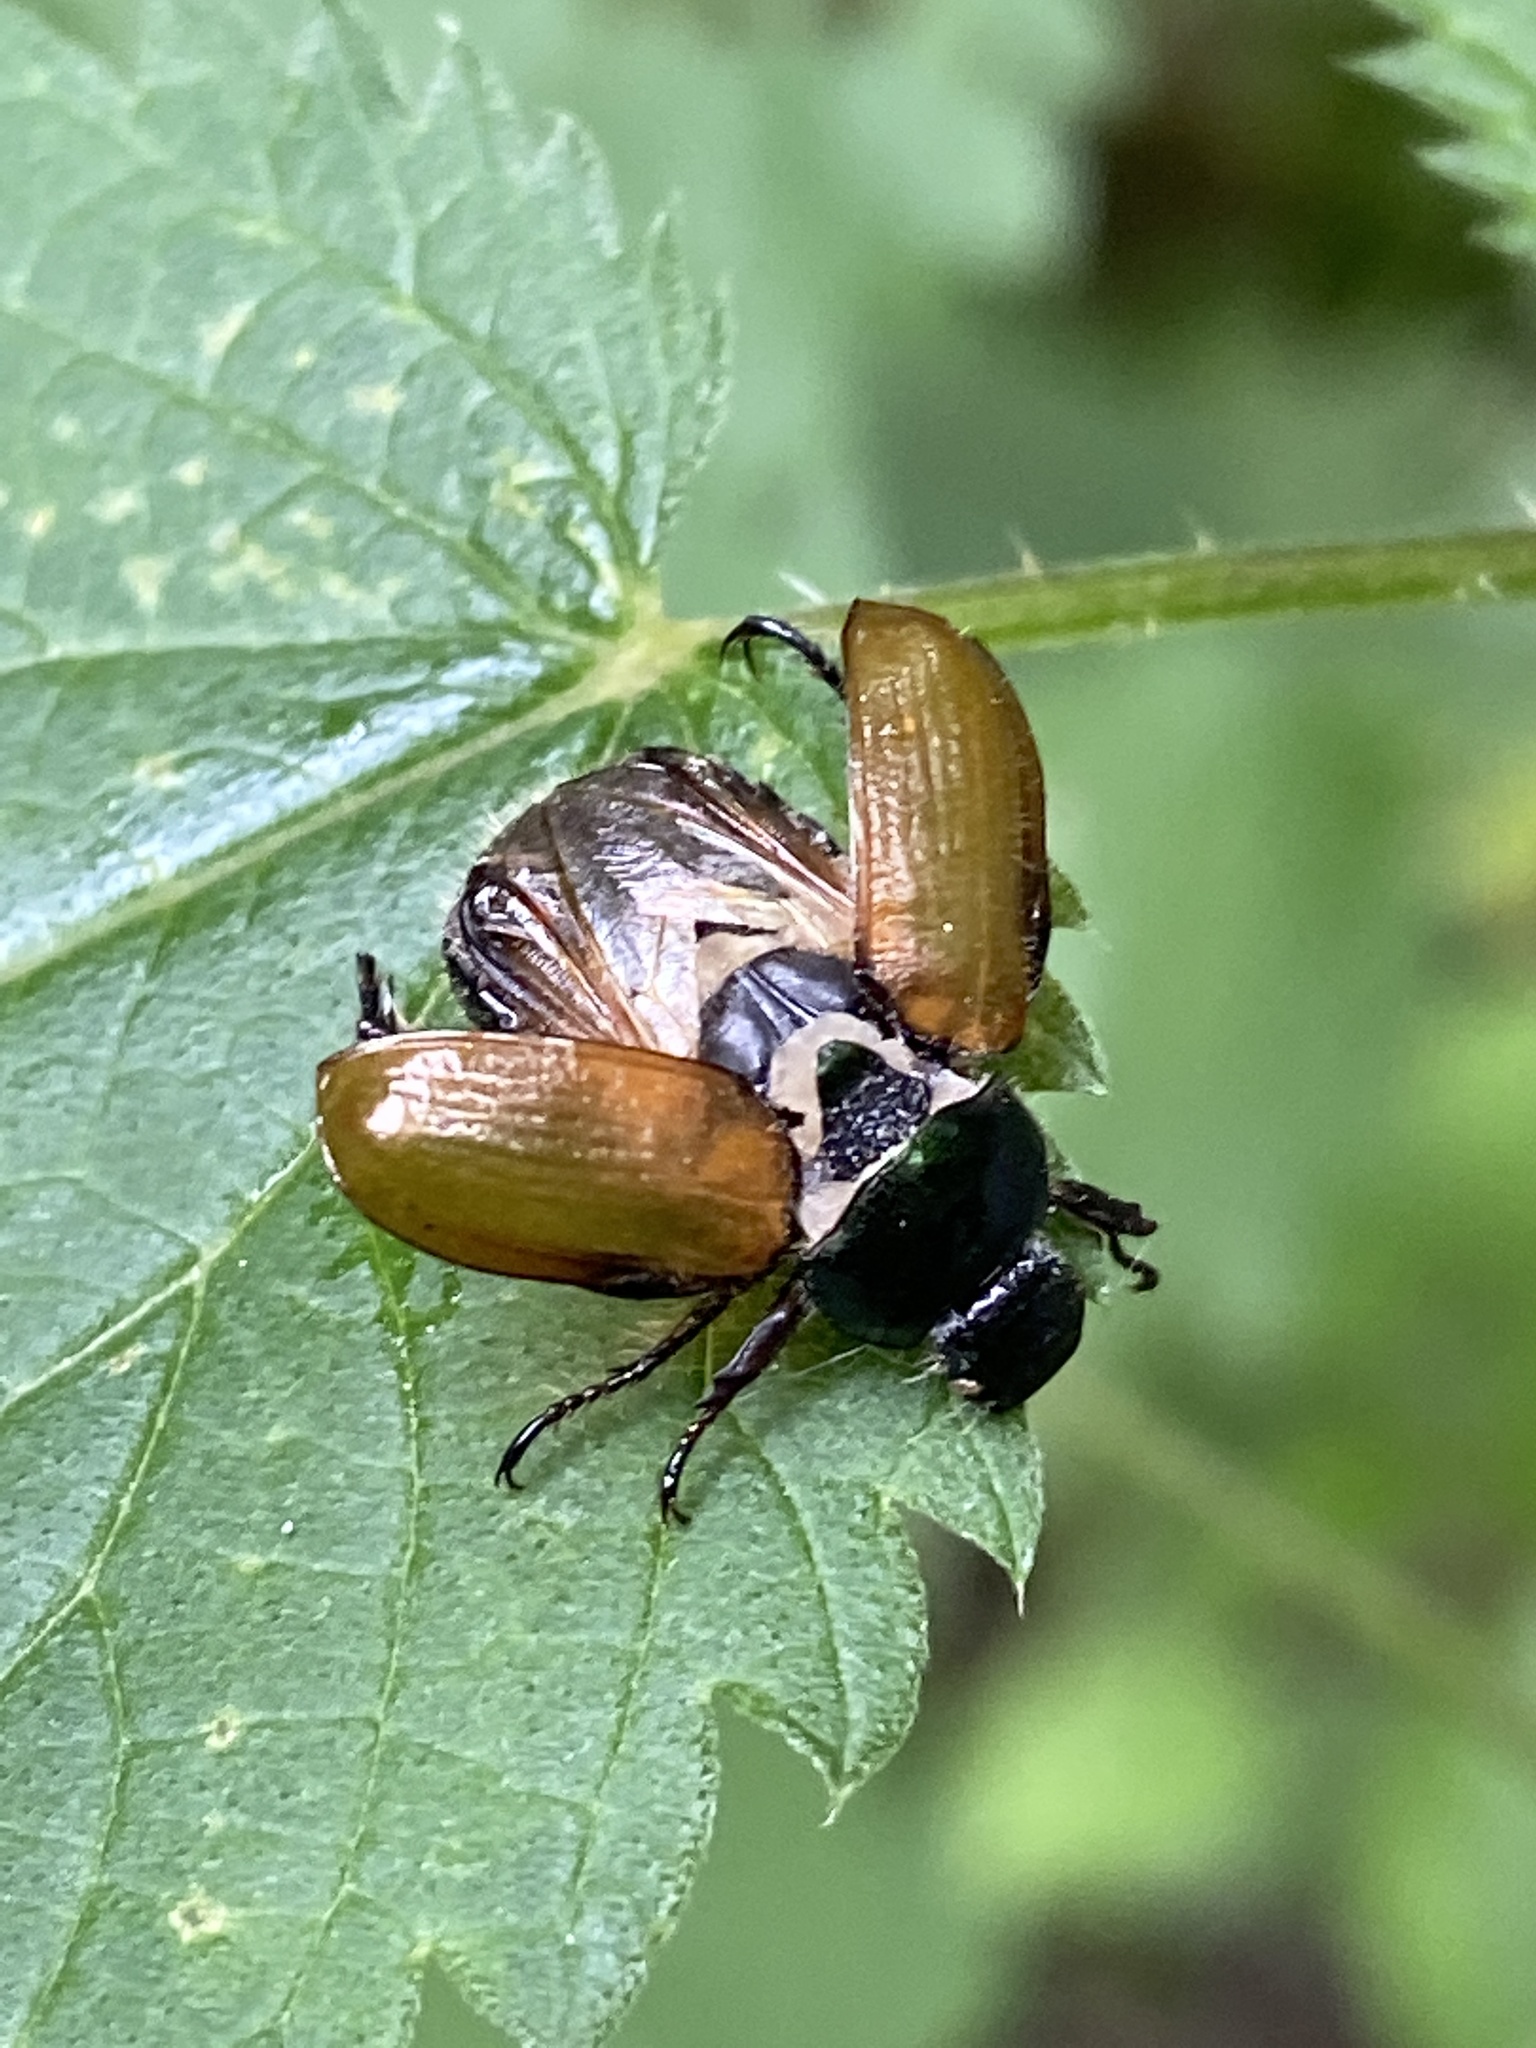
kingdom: Animalia
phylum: Arthropoda
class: Insecta
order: Coleoptera
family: Scarabaeidae
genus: Phyllopertha
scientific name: Phyllopertha horticola
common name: Garden chafer
